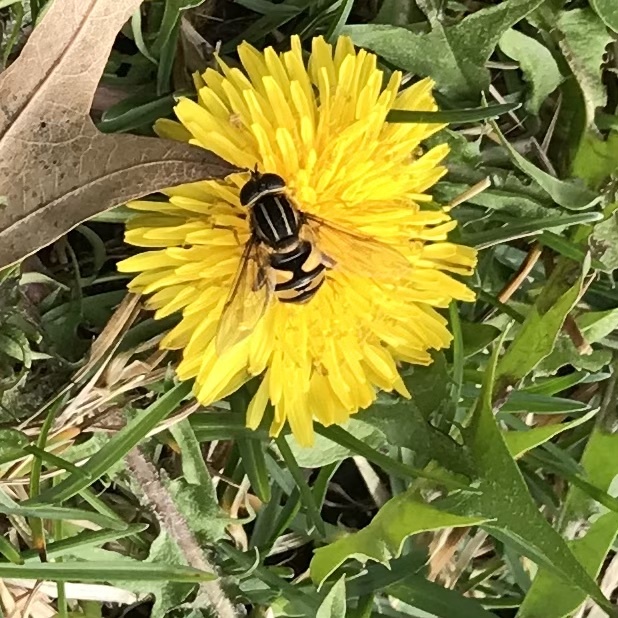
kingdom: Animalia
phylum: Arthropoda
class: Insecta
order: Diptera
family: Syrphidae
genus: Helophilus
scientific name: Helophilus fasciatus
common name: Narrow-headed marsh fly
